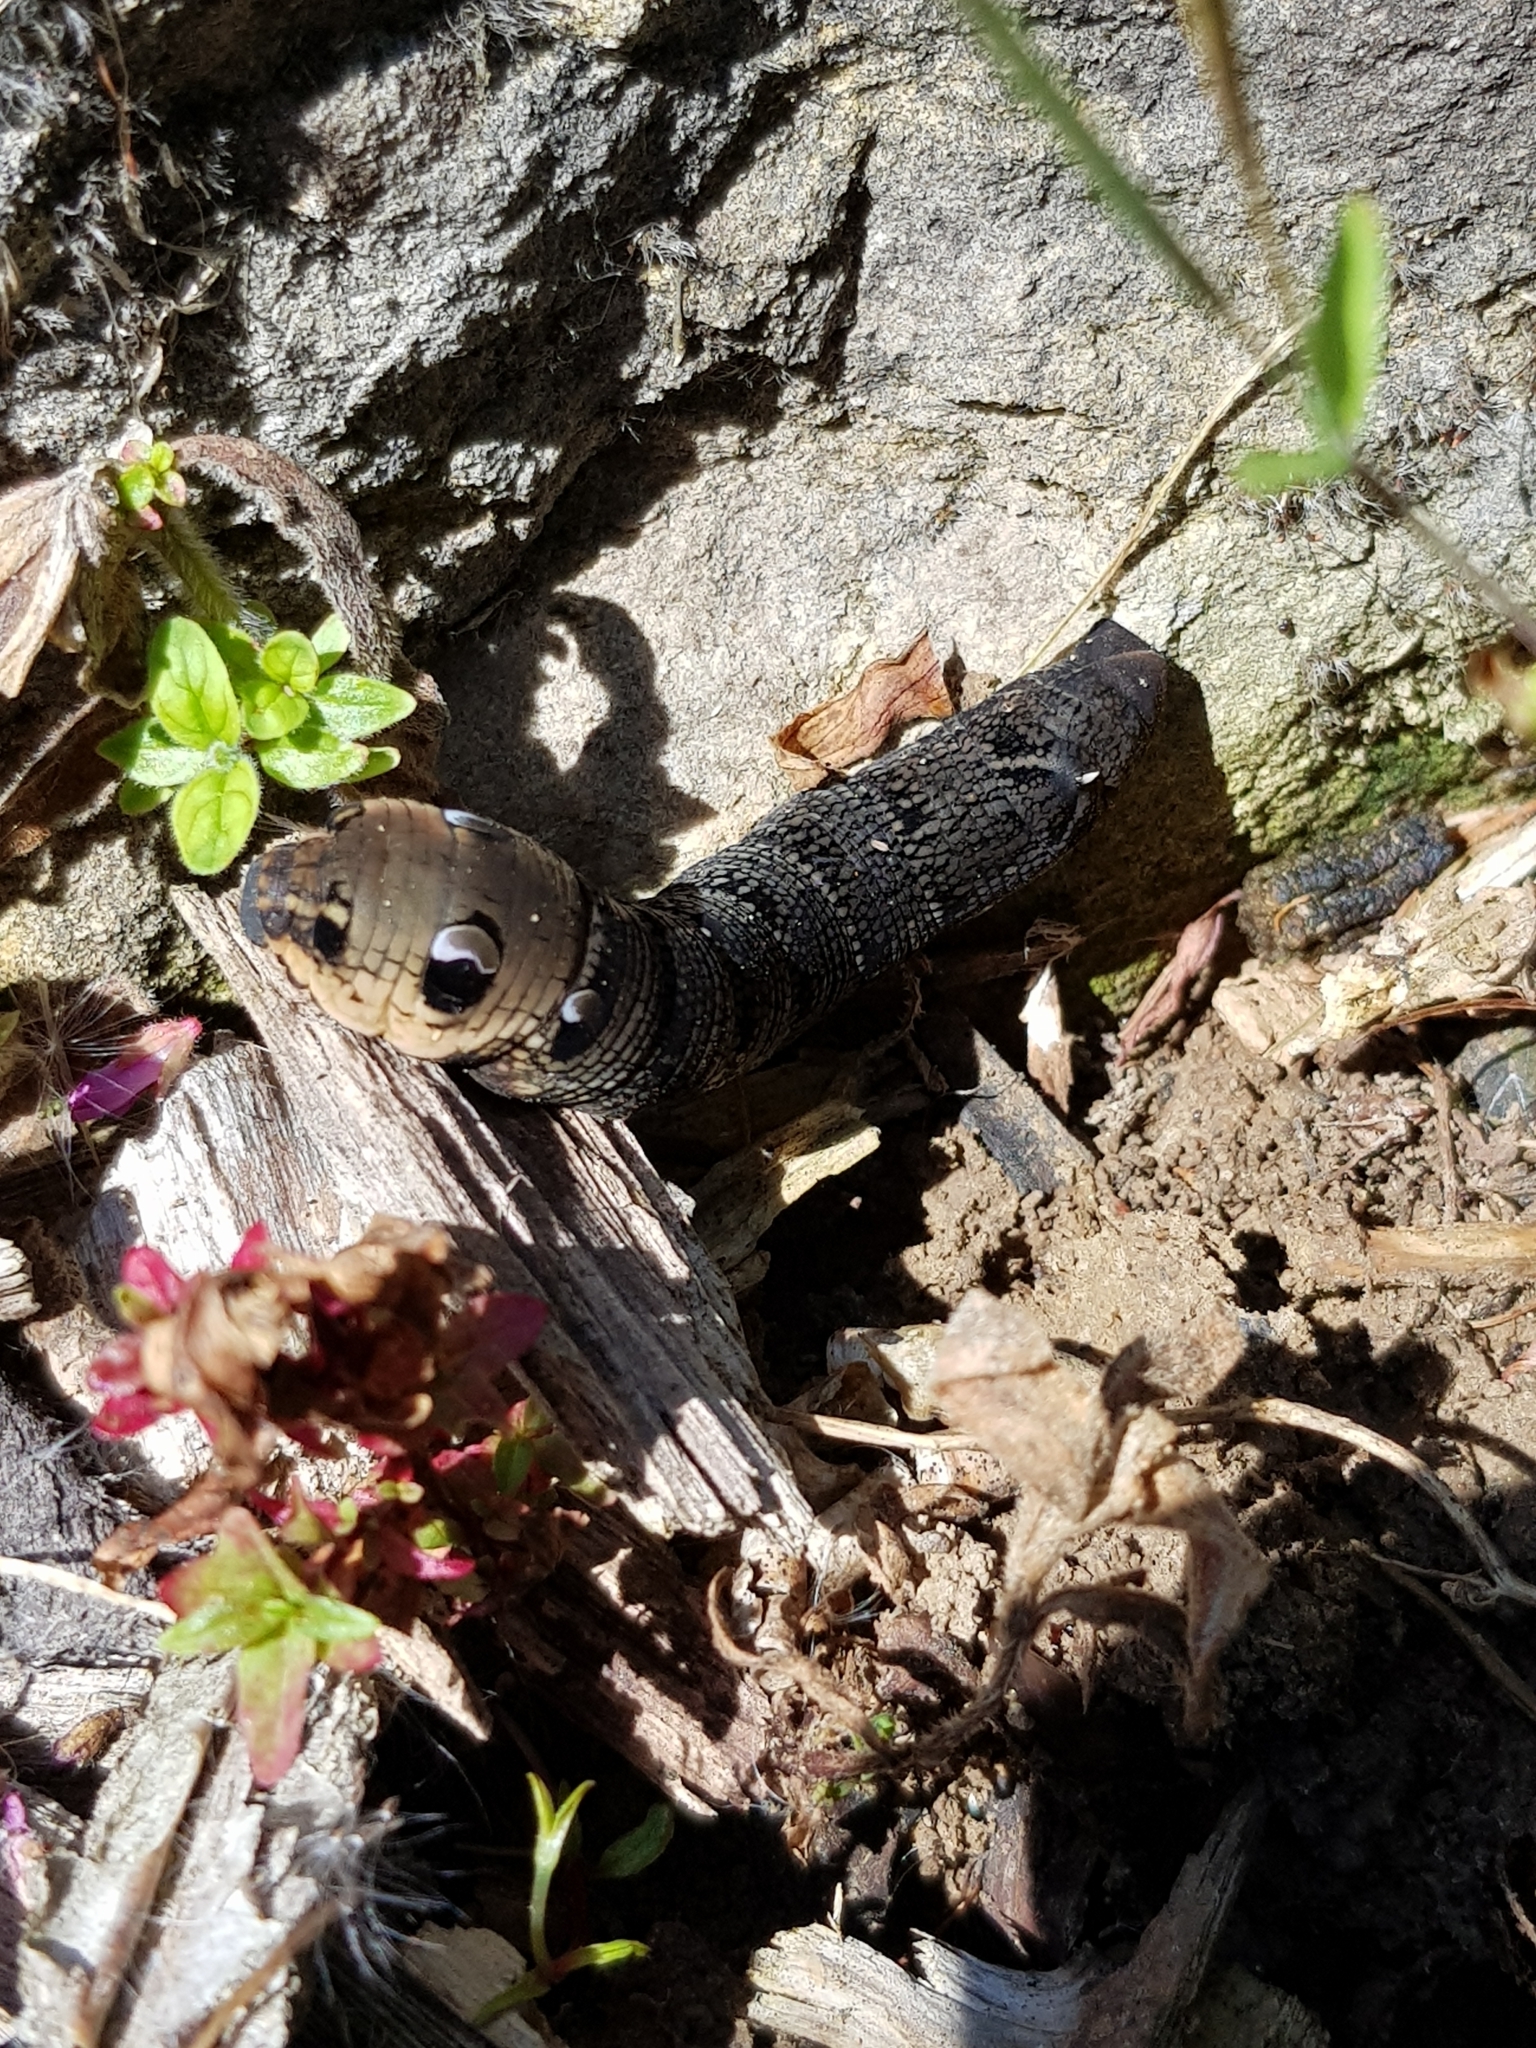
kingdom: Animalia
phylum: Arthropoda
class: Insecta
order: Lepidoptera
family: Sphingidae
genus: Deilephila
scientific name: Deilephila elpenor
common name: Elephant hawk-moth
